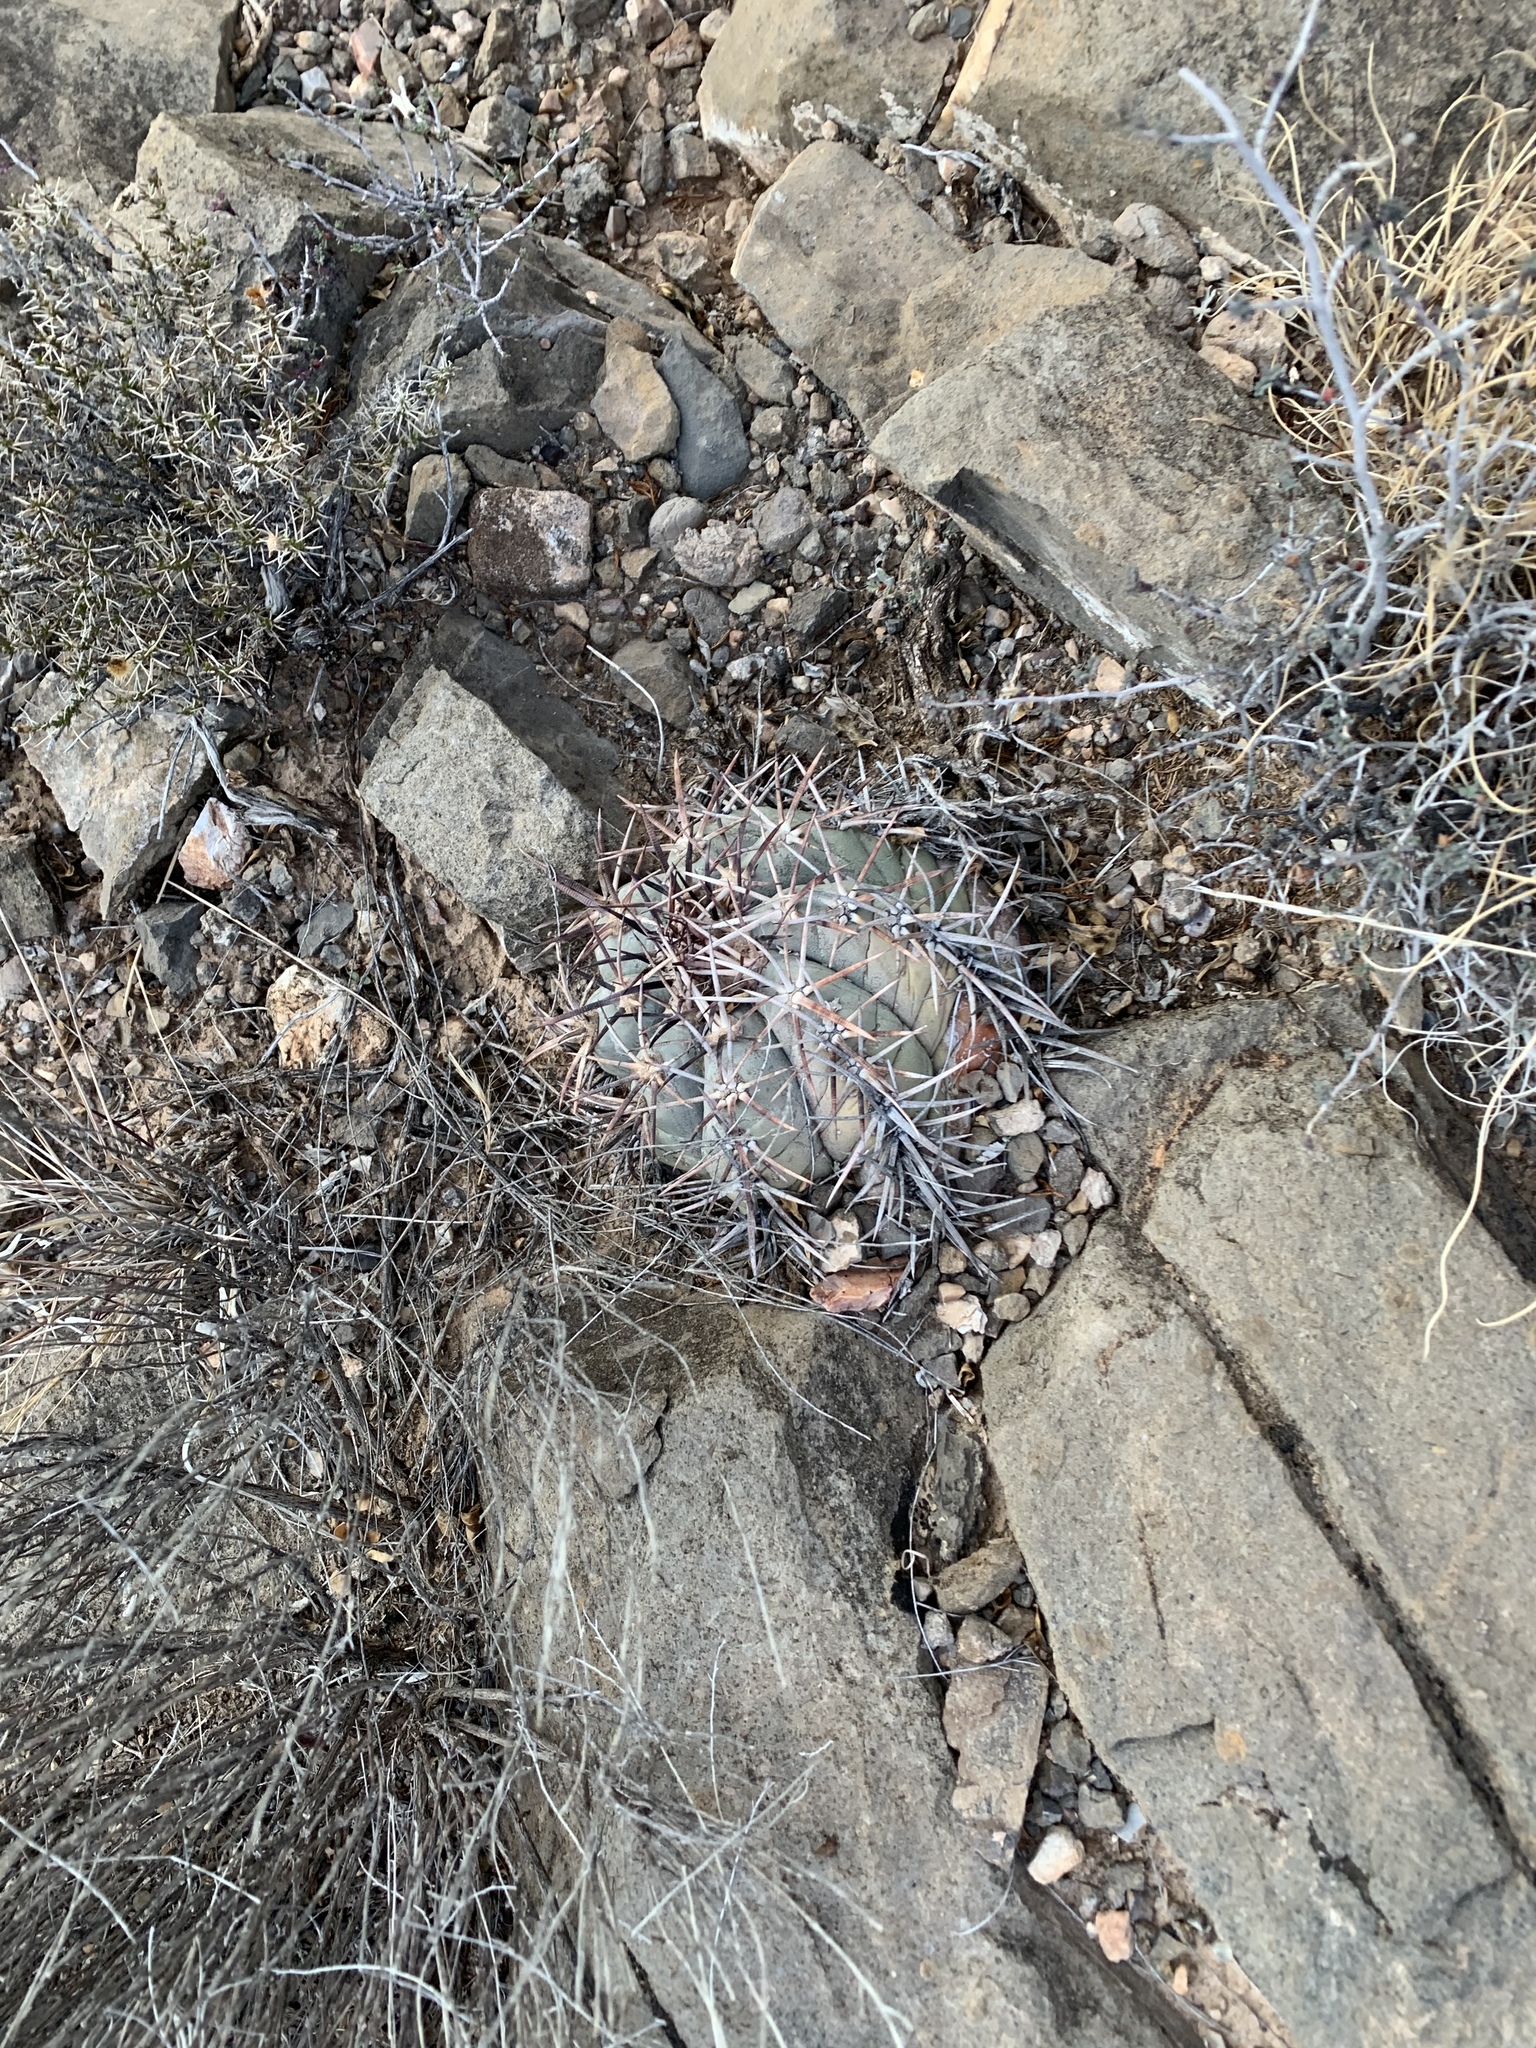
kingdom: Plantae
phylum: Tracheophyta
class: Magnoliopsida
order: Caryophyllales
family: Cactaceae
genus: Echinocactus
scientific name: Echinocactus horizonthalonius
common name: Devilshead
